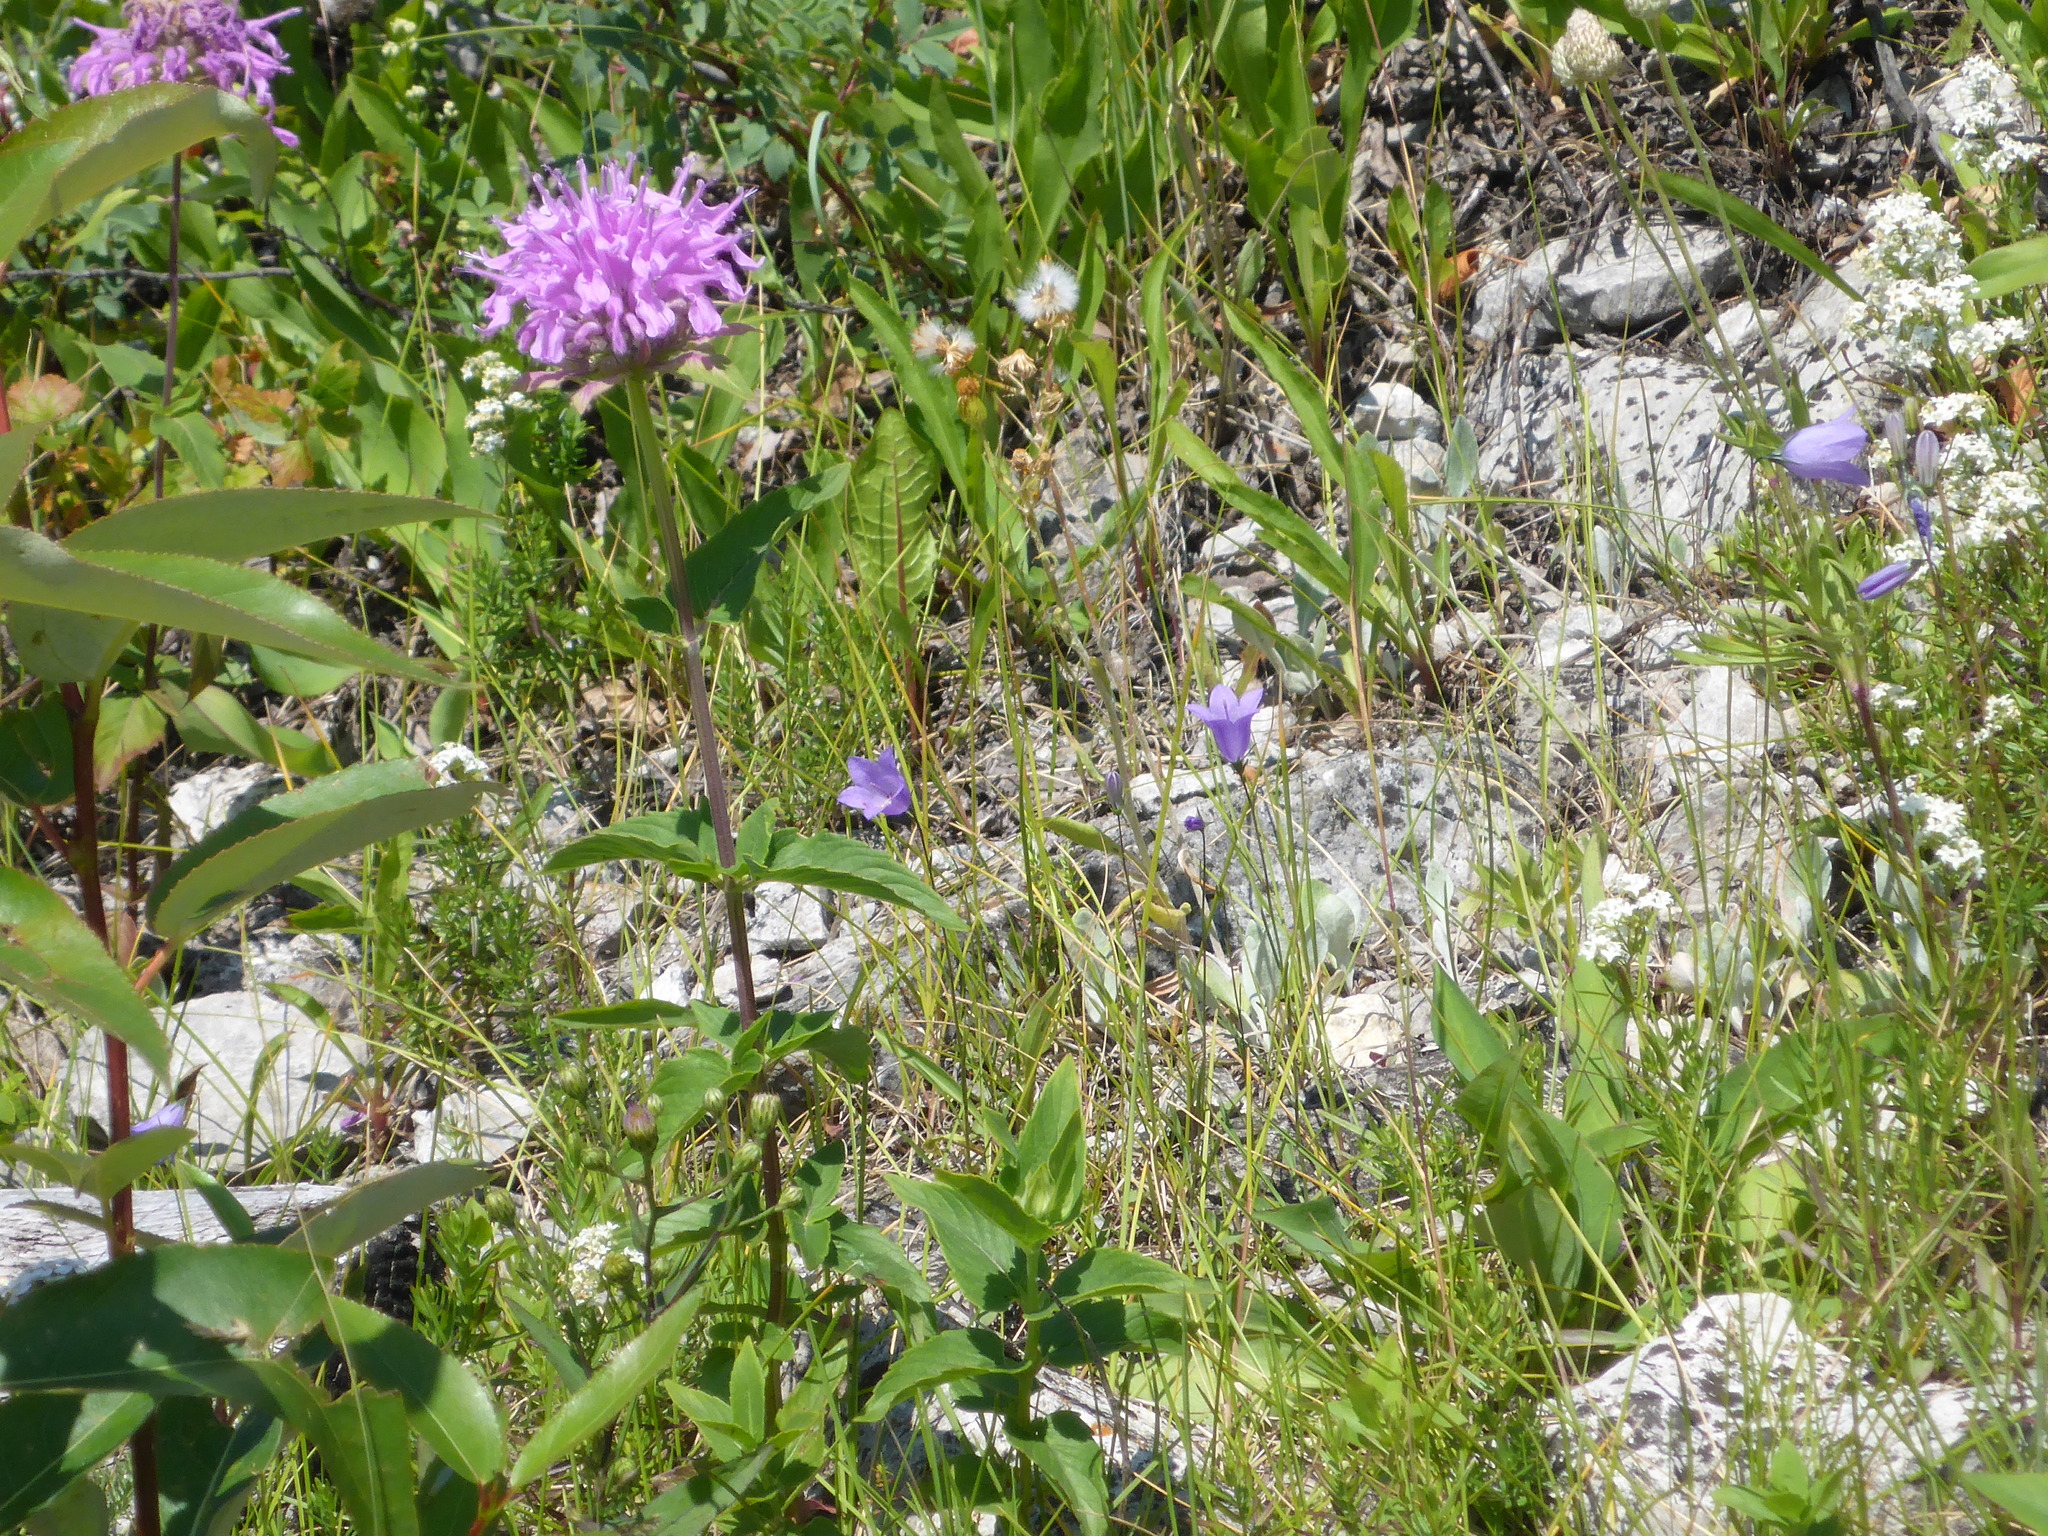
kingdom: Plantae
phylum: Tracheophyta
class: Magnoliopsida
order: Lamiales
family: Lamiaceae
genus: Monarda
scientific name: Monarda fistulosa
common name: Purple beebalm
